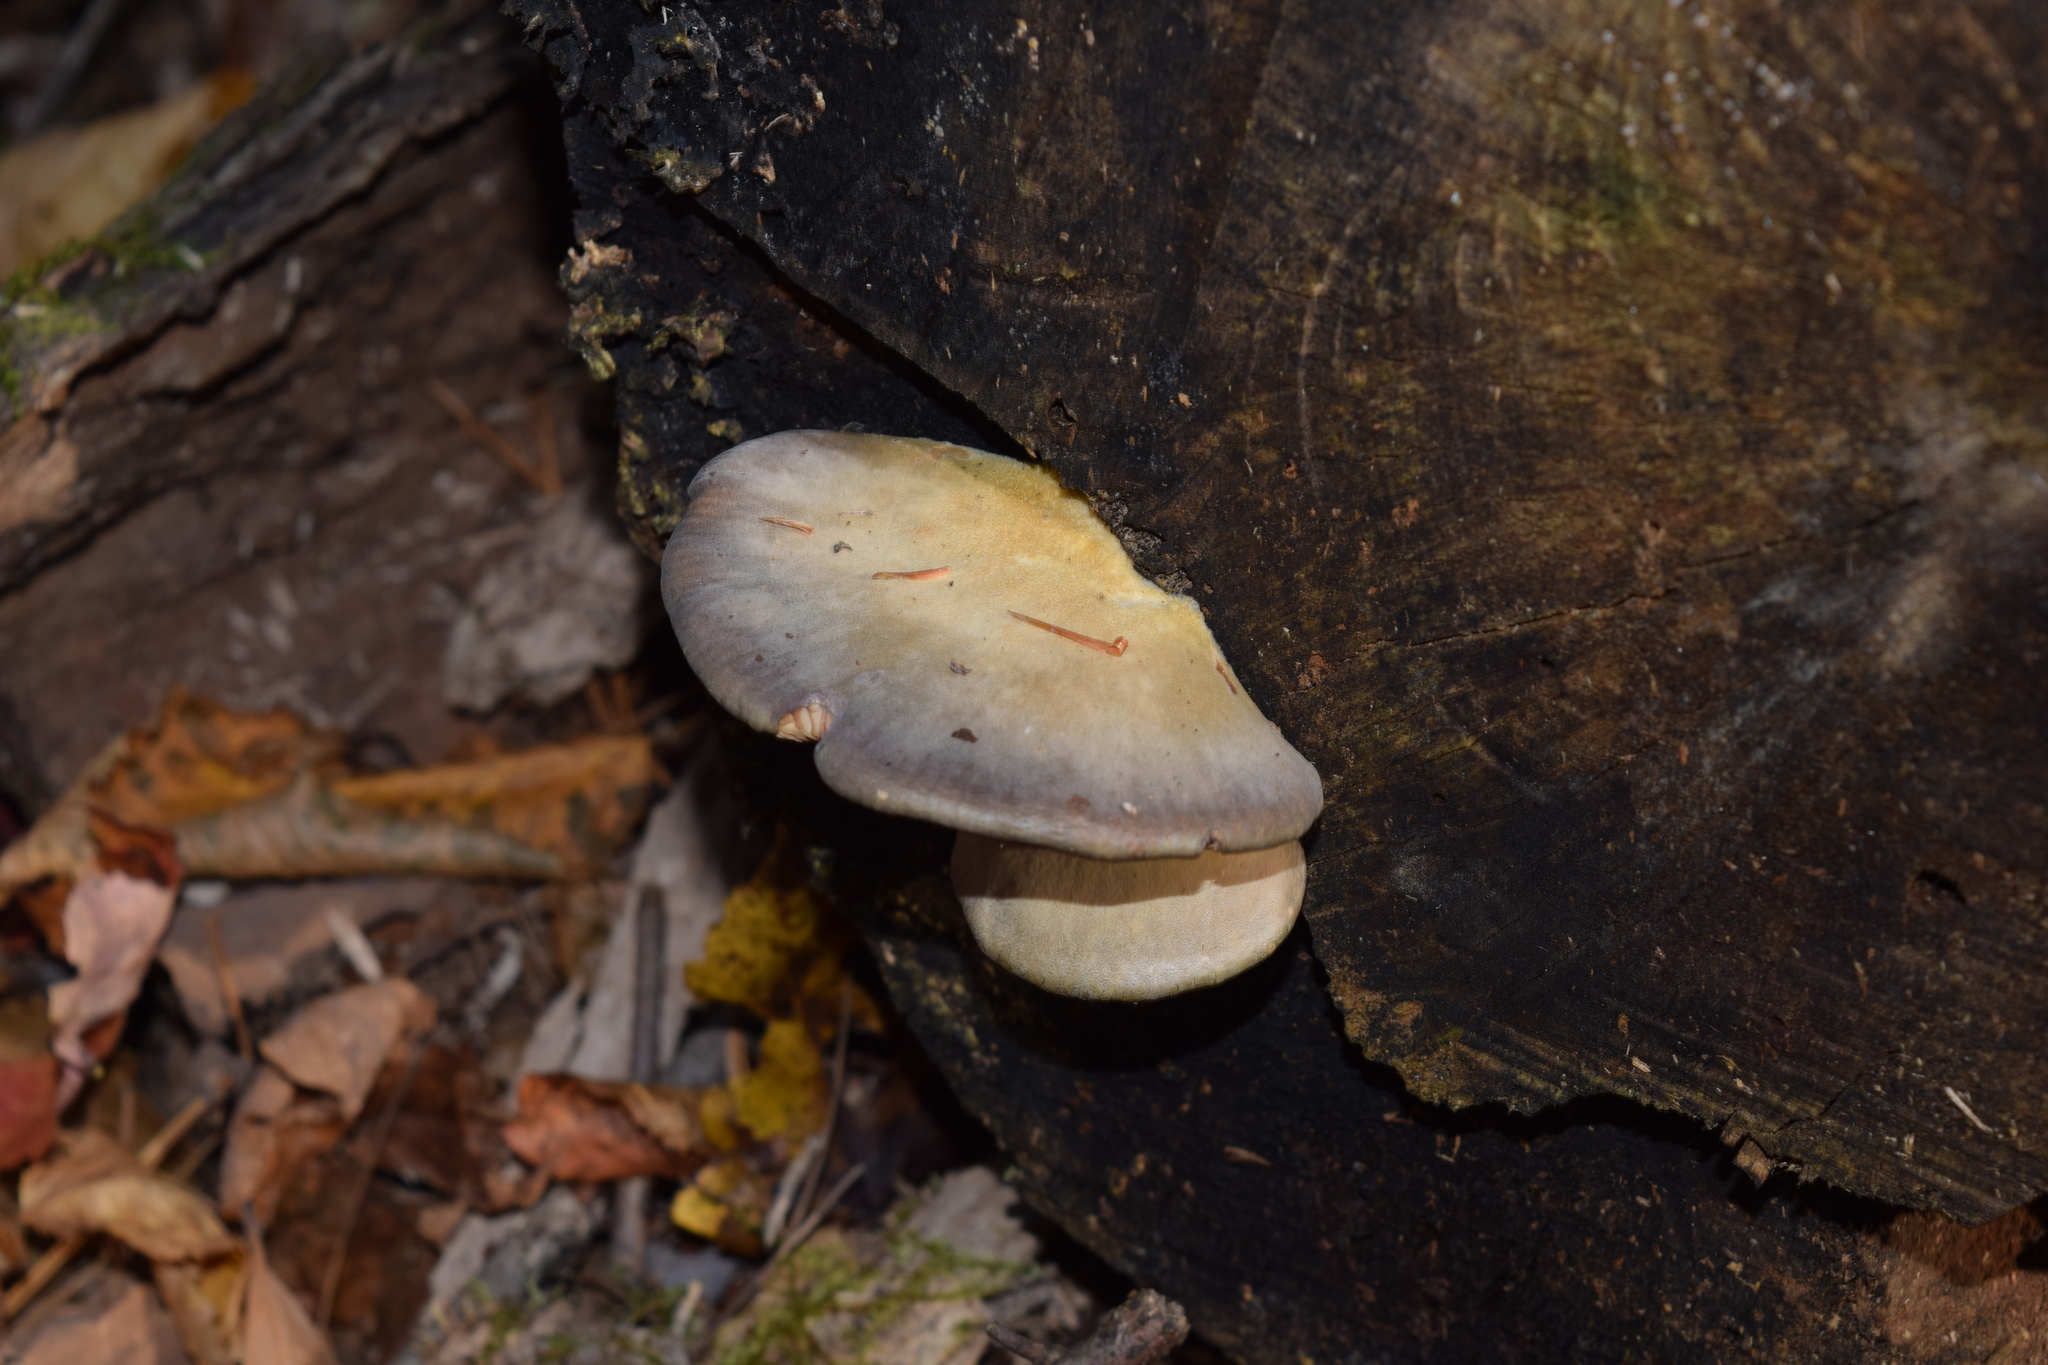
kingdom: Fungi
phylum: Basidiomycota
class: Agaricomycetes
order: Agaricales
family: Sarcomyxaceae
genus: Sarcomyxa
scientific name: Sarcomyxa serotina
